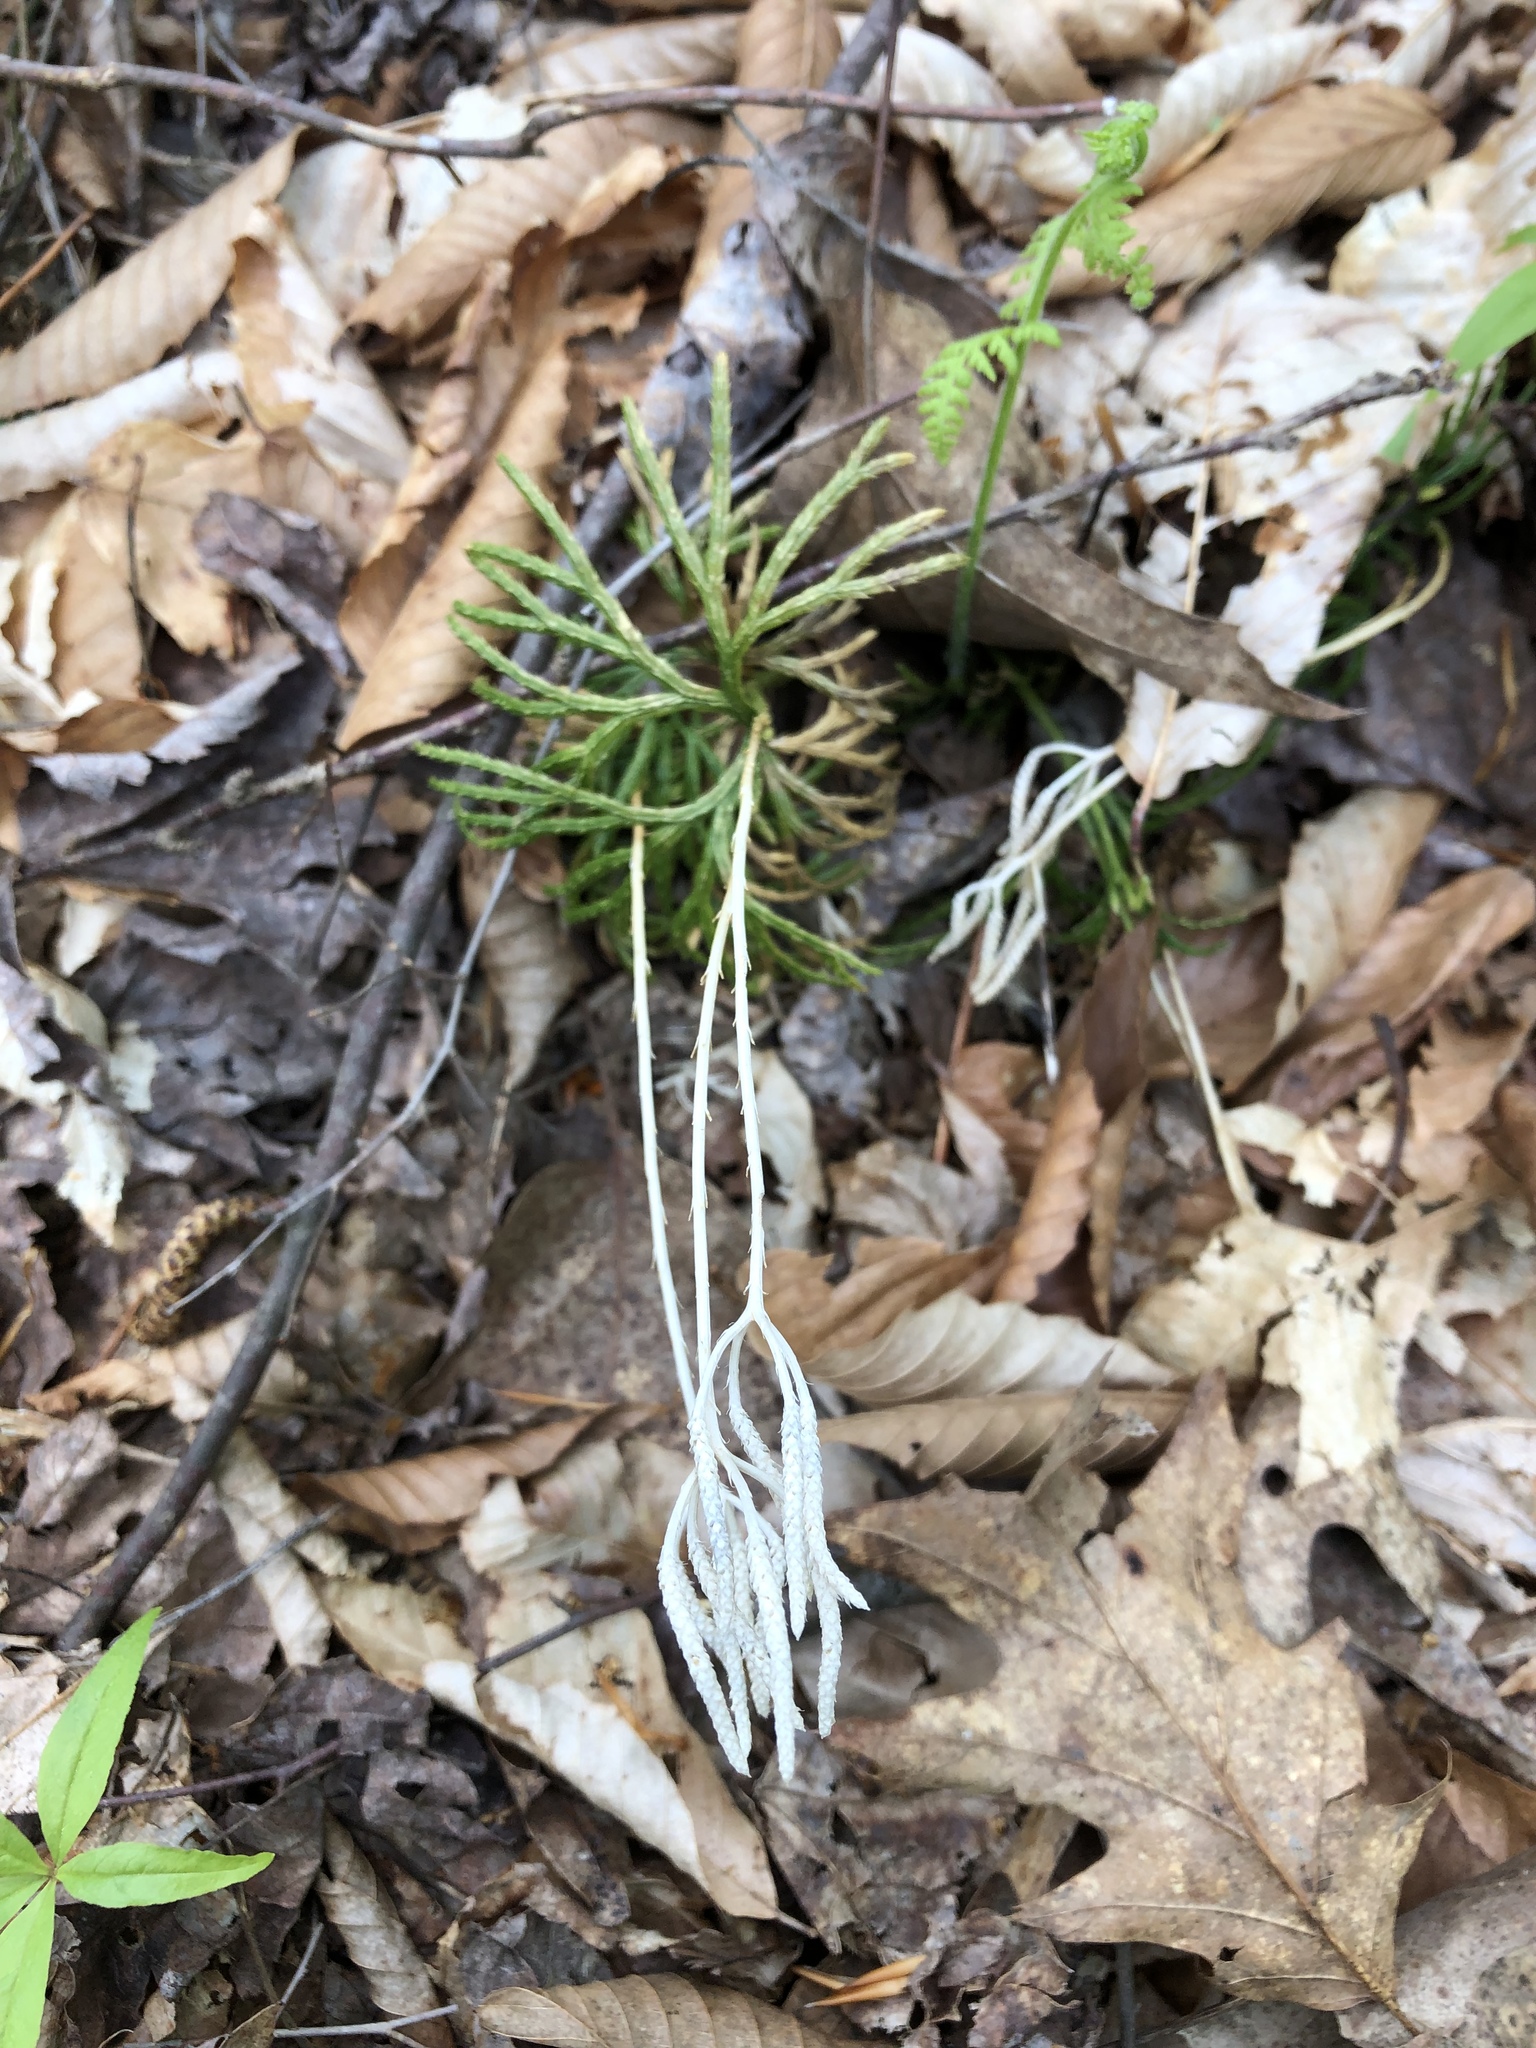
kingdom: Plantae
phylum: Tracheophyta
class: Lycopodiopsida
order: Lycopodiales
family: Lycopodiaceae
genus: Diphasiastrum
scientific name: Diphasiastrum digitatum
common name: Southern running-pine
